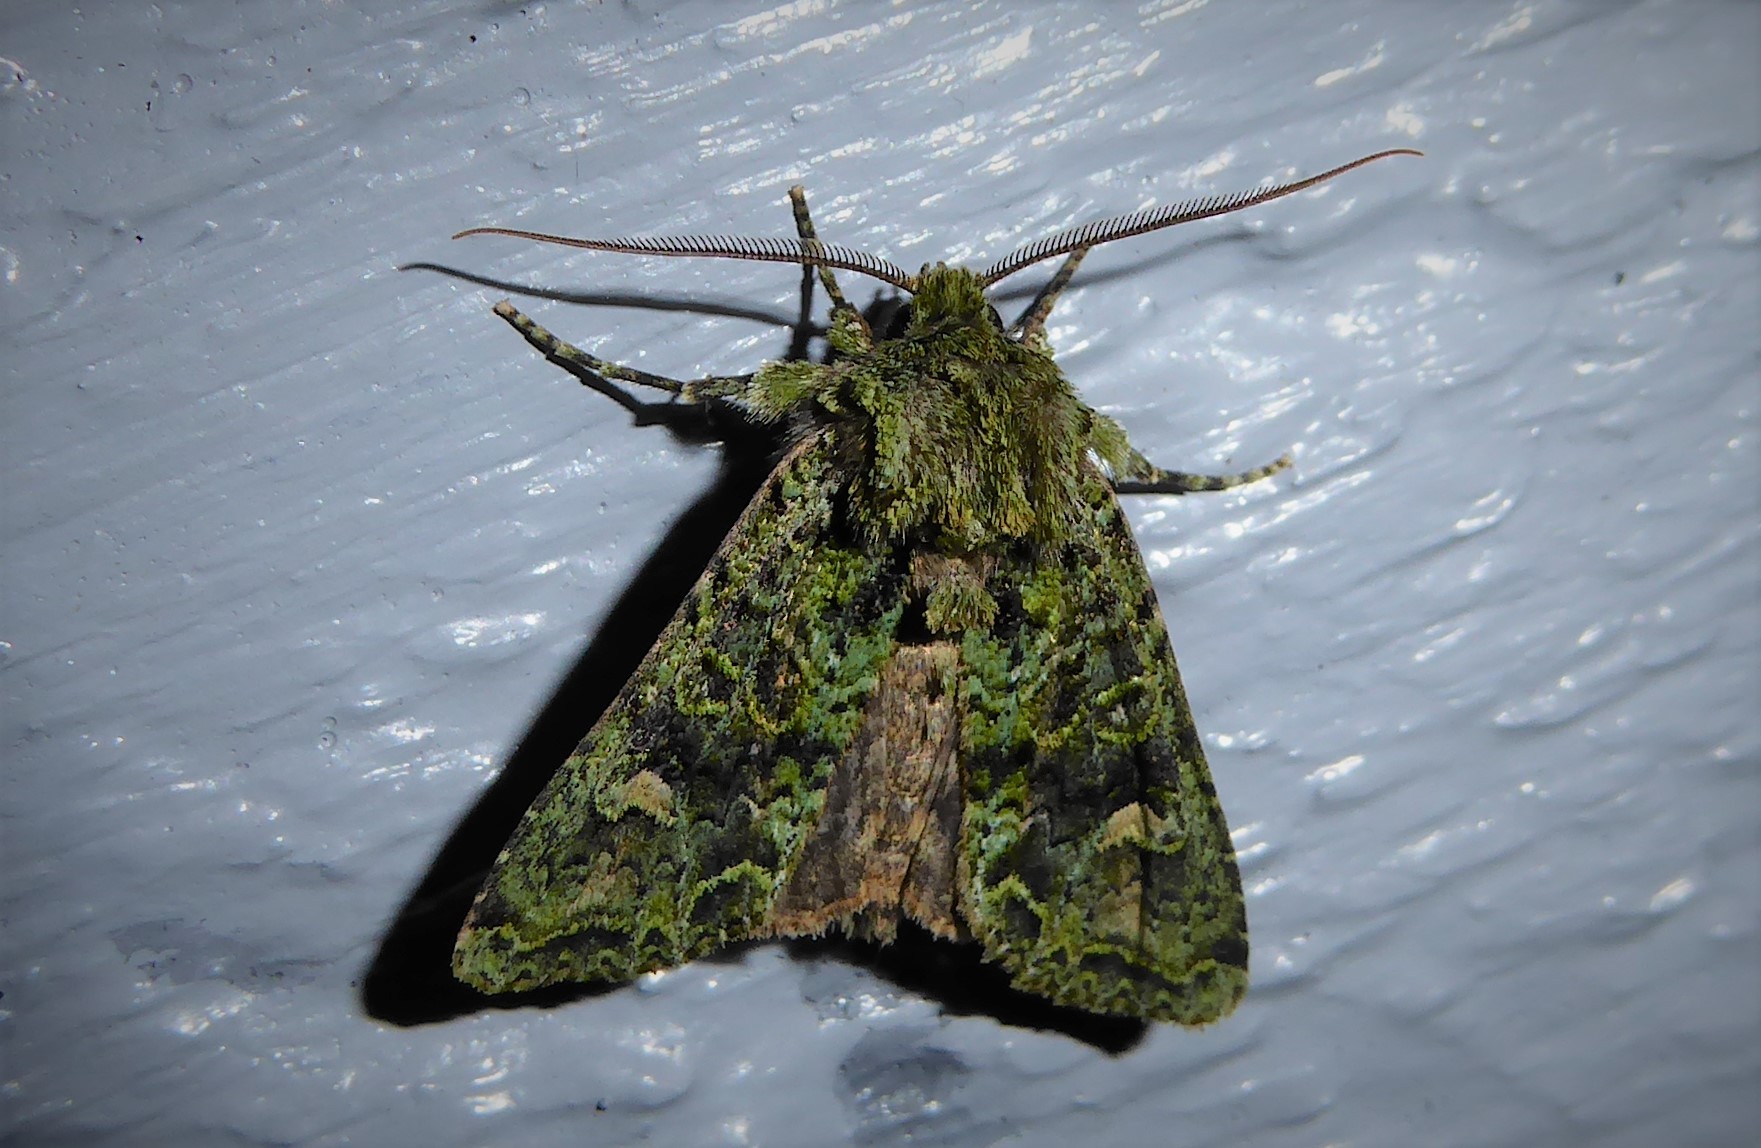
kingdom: Animalia
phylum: Arthropoda
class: Insecta
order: Lepidoptera
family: Noctuidae
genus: Ichneutica
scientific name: Ichneutica
